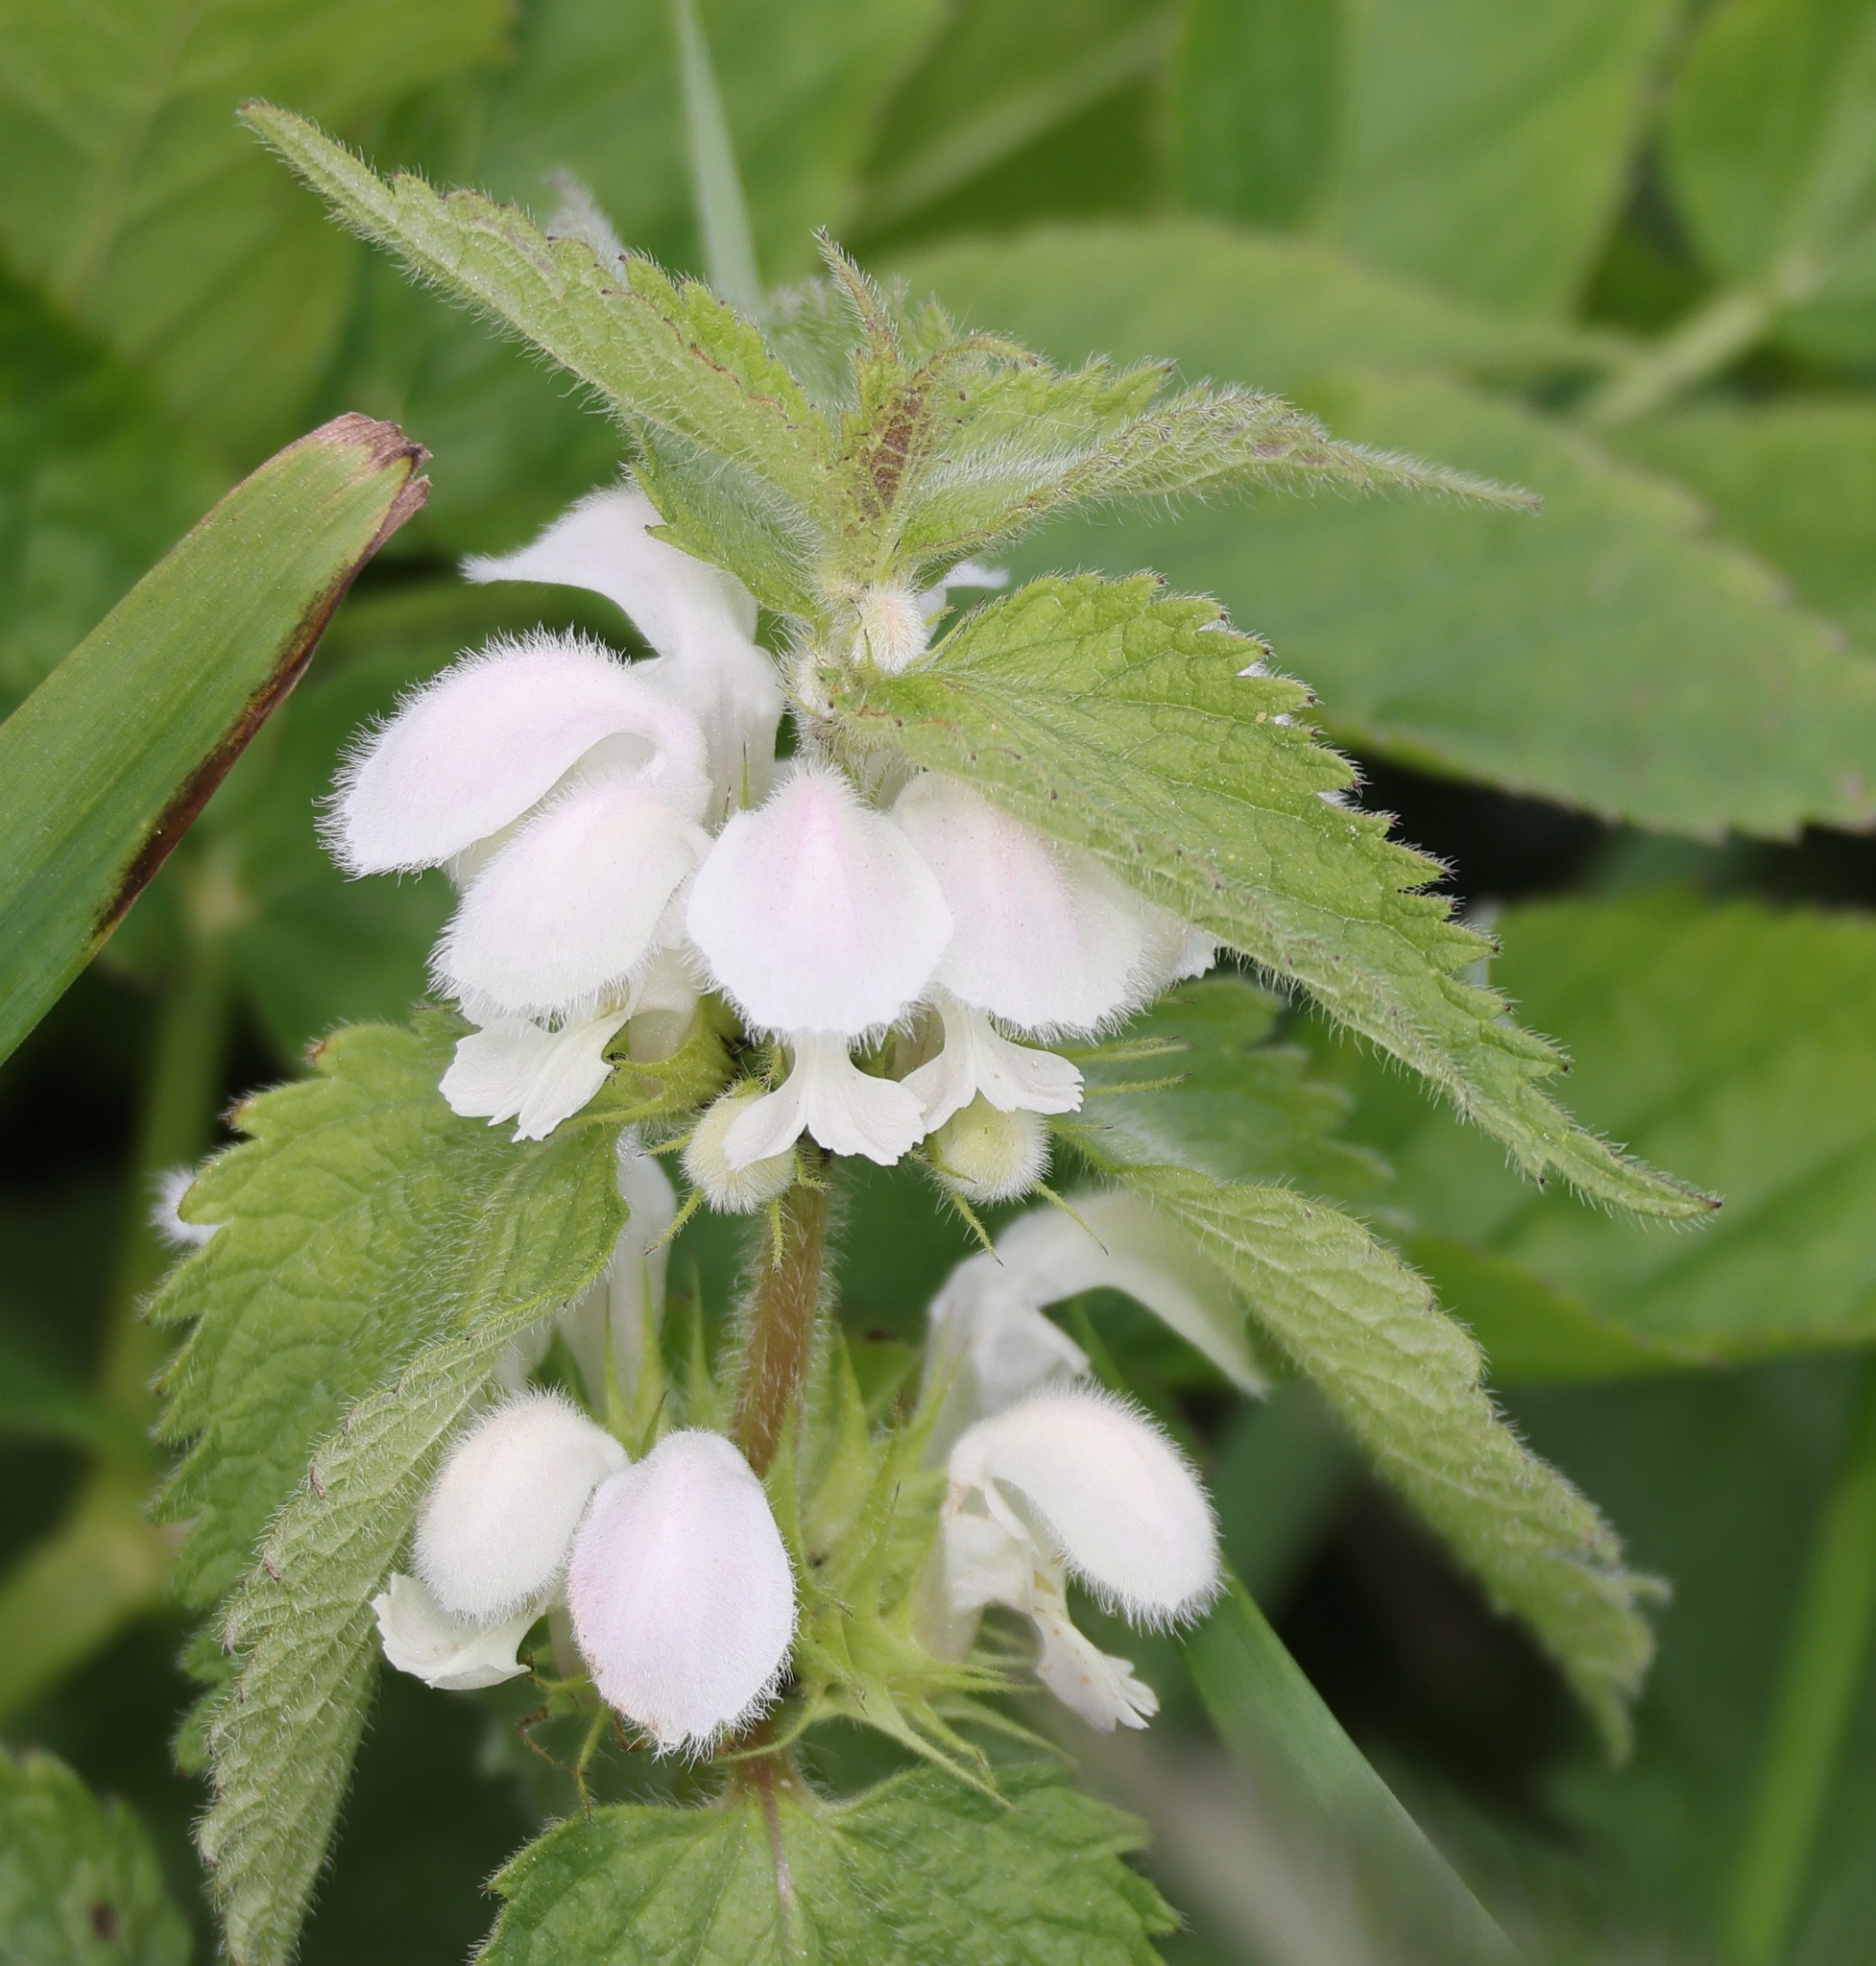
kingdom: Plantae
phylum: Tracheophyta
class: Magnoliopsida
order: Lamiales
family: Lamiaceae
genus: Lamium
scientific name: Lamium album
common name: White dead-nettle
